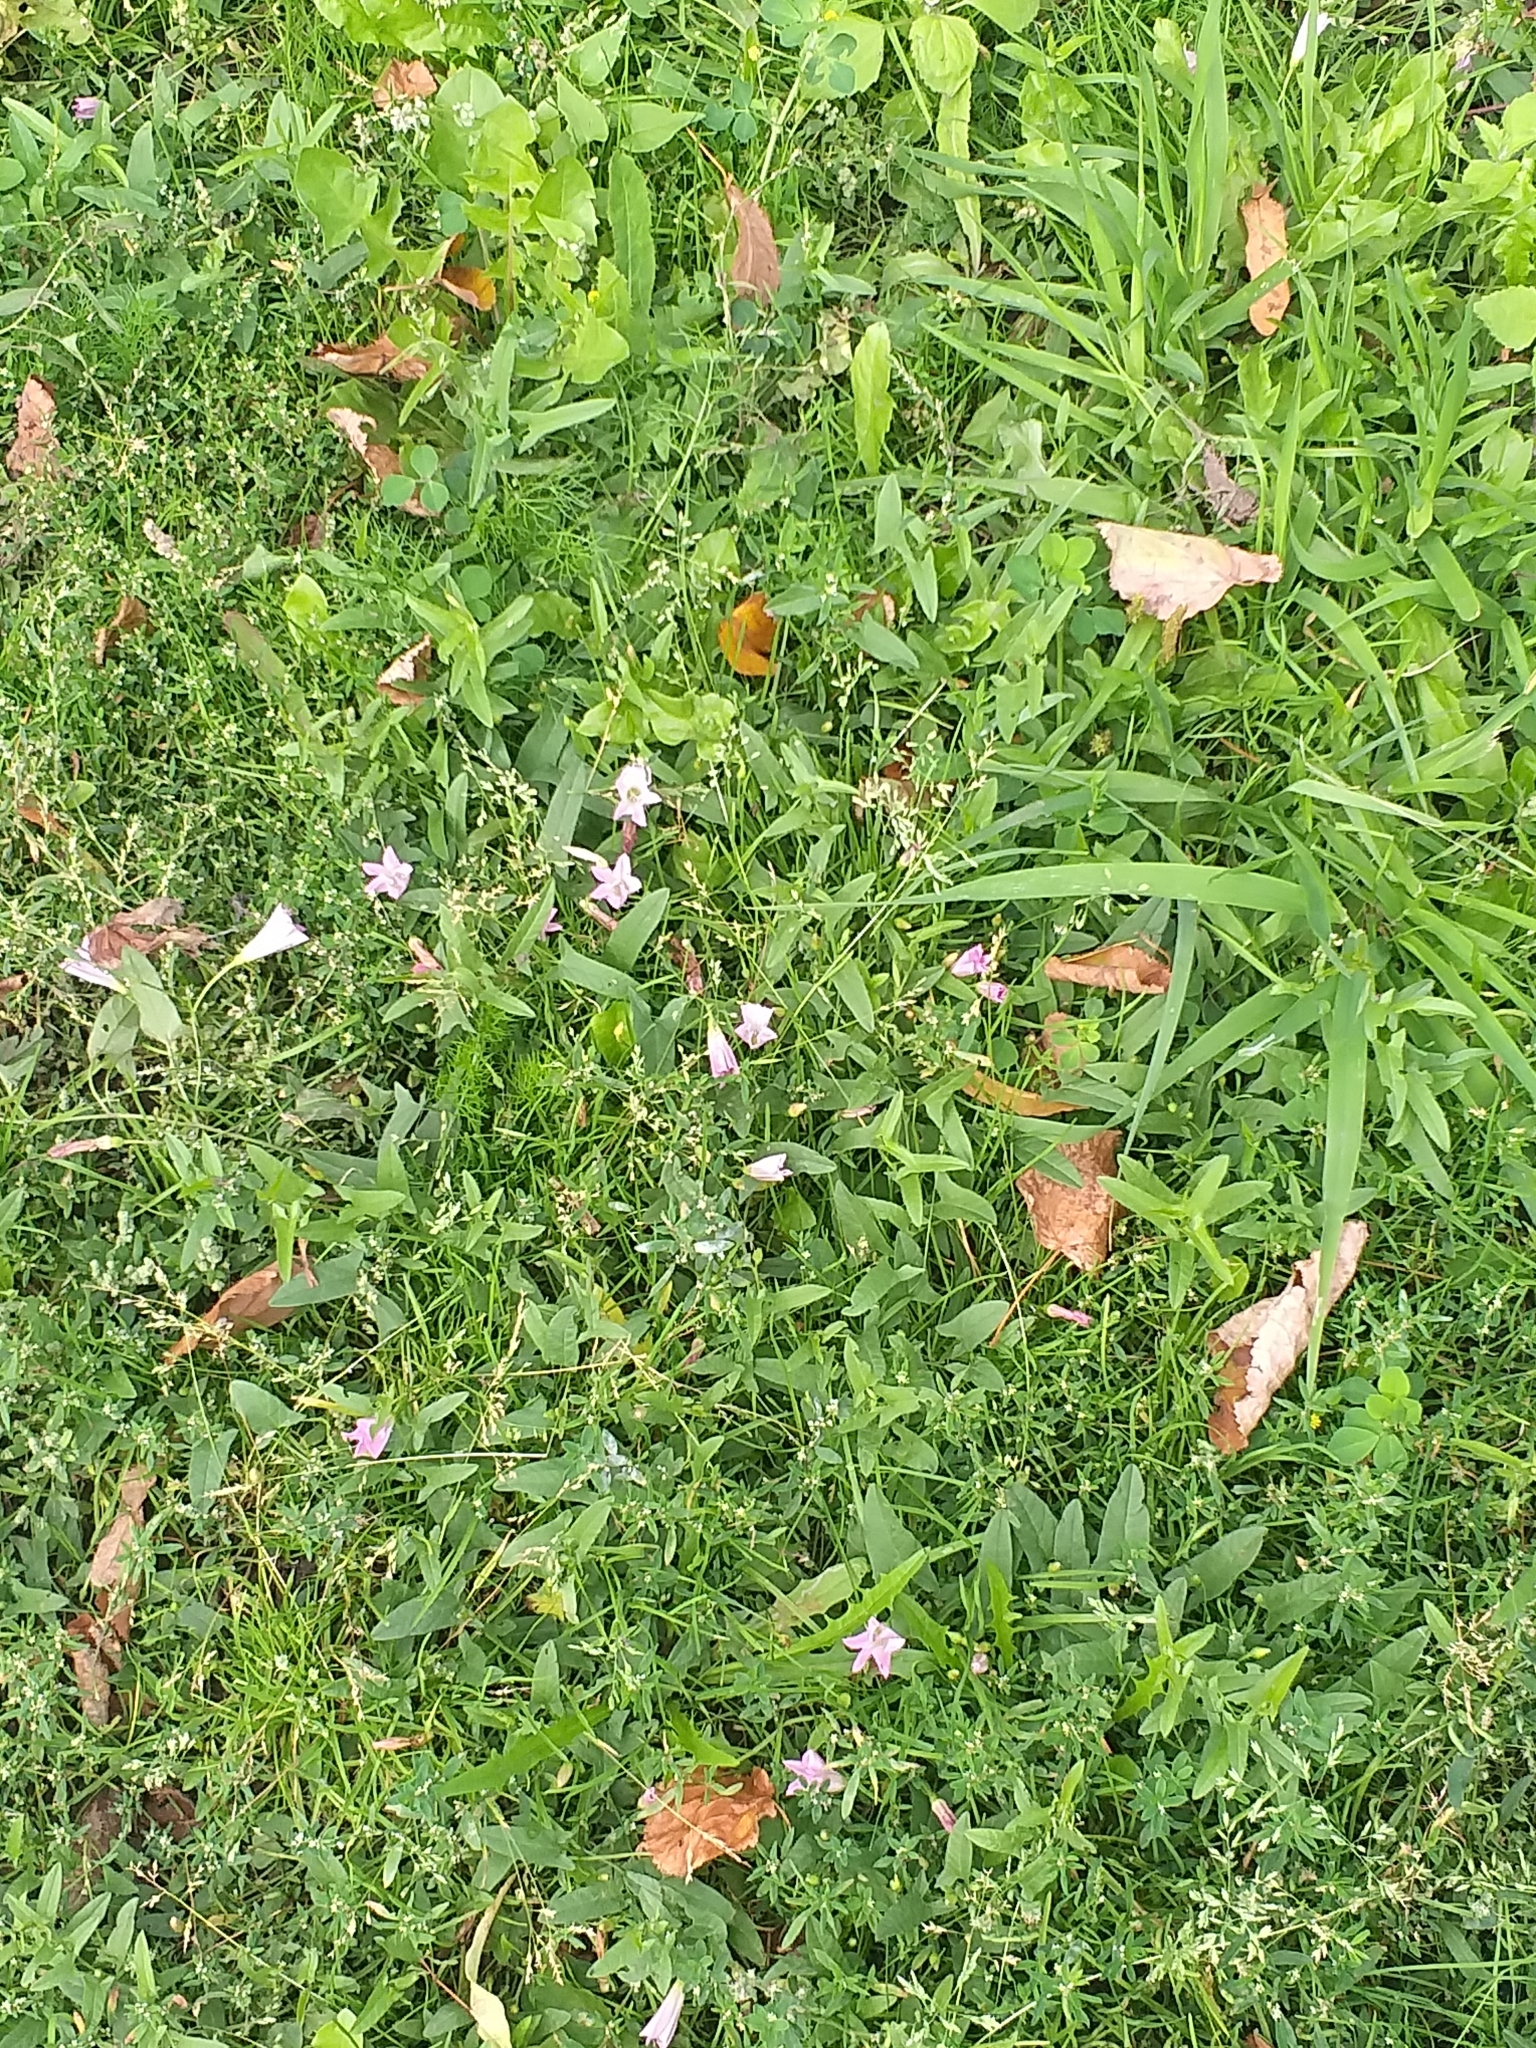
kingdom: Plantae
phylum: Tracheophyta
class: Magnoliopsida
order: Solanales
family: Convolvulaceae
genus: Convolvulus
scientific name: Convolvulus arvensis
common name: Field bindweed
